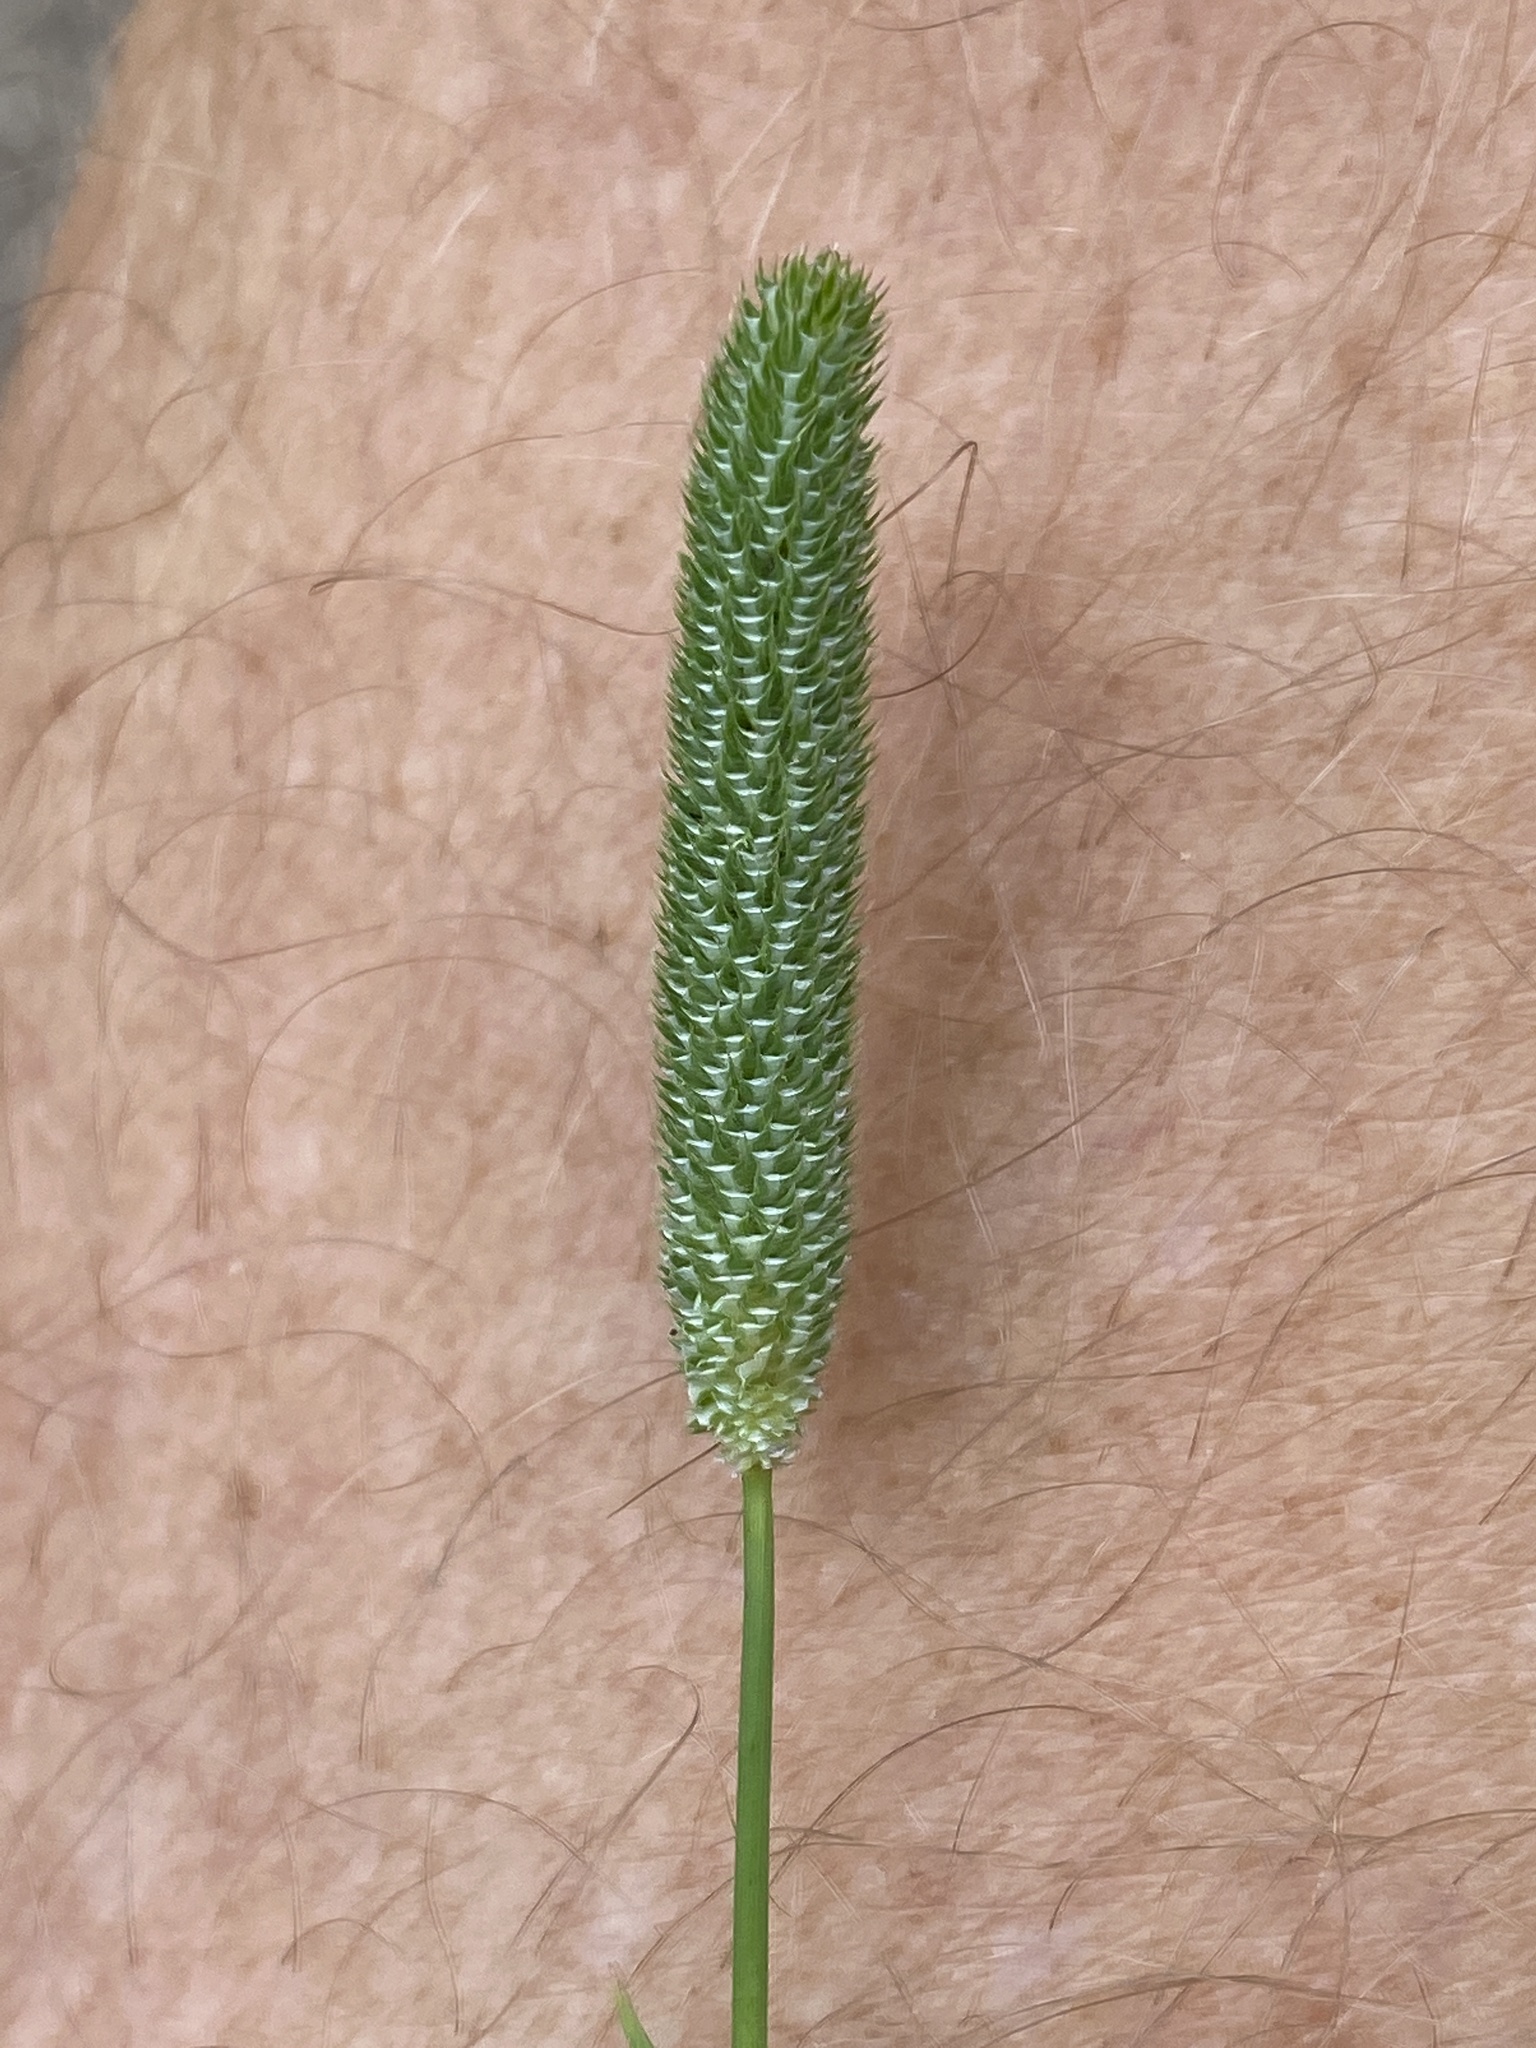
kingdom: Plantae
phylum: Tracheophyta
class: Liliopsida
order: Poales
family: Poaceae
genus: Phleum
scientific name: Phleum bertolonii
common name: Smaller cat's-tail
